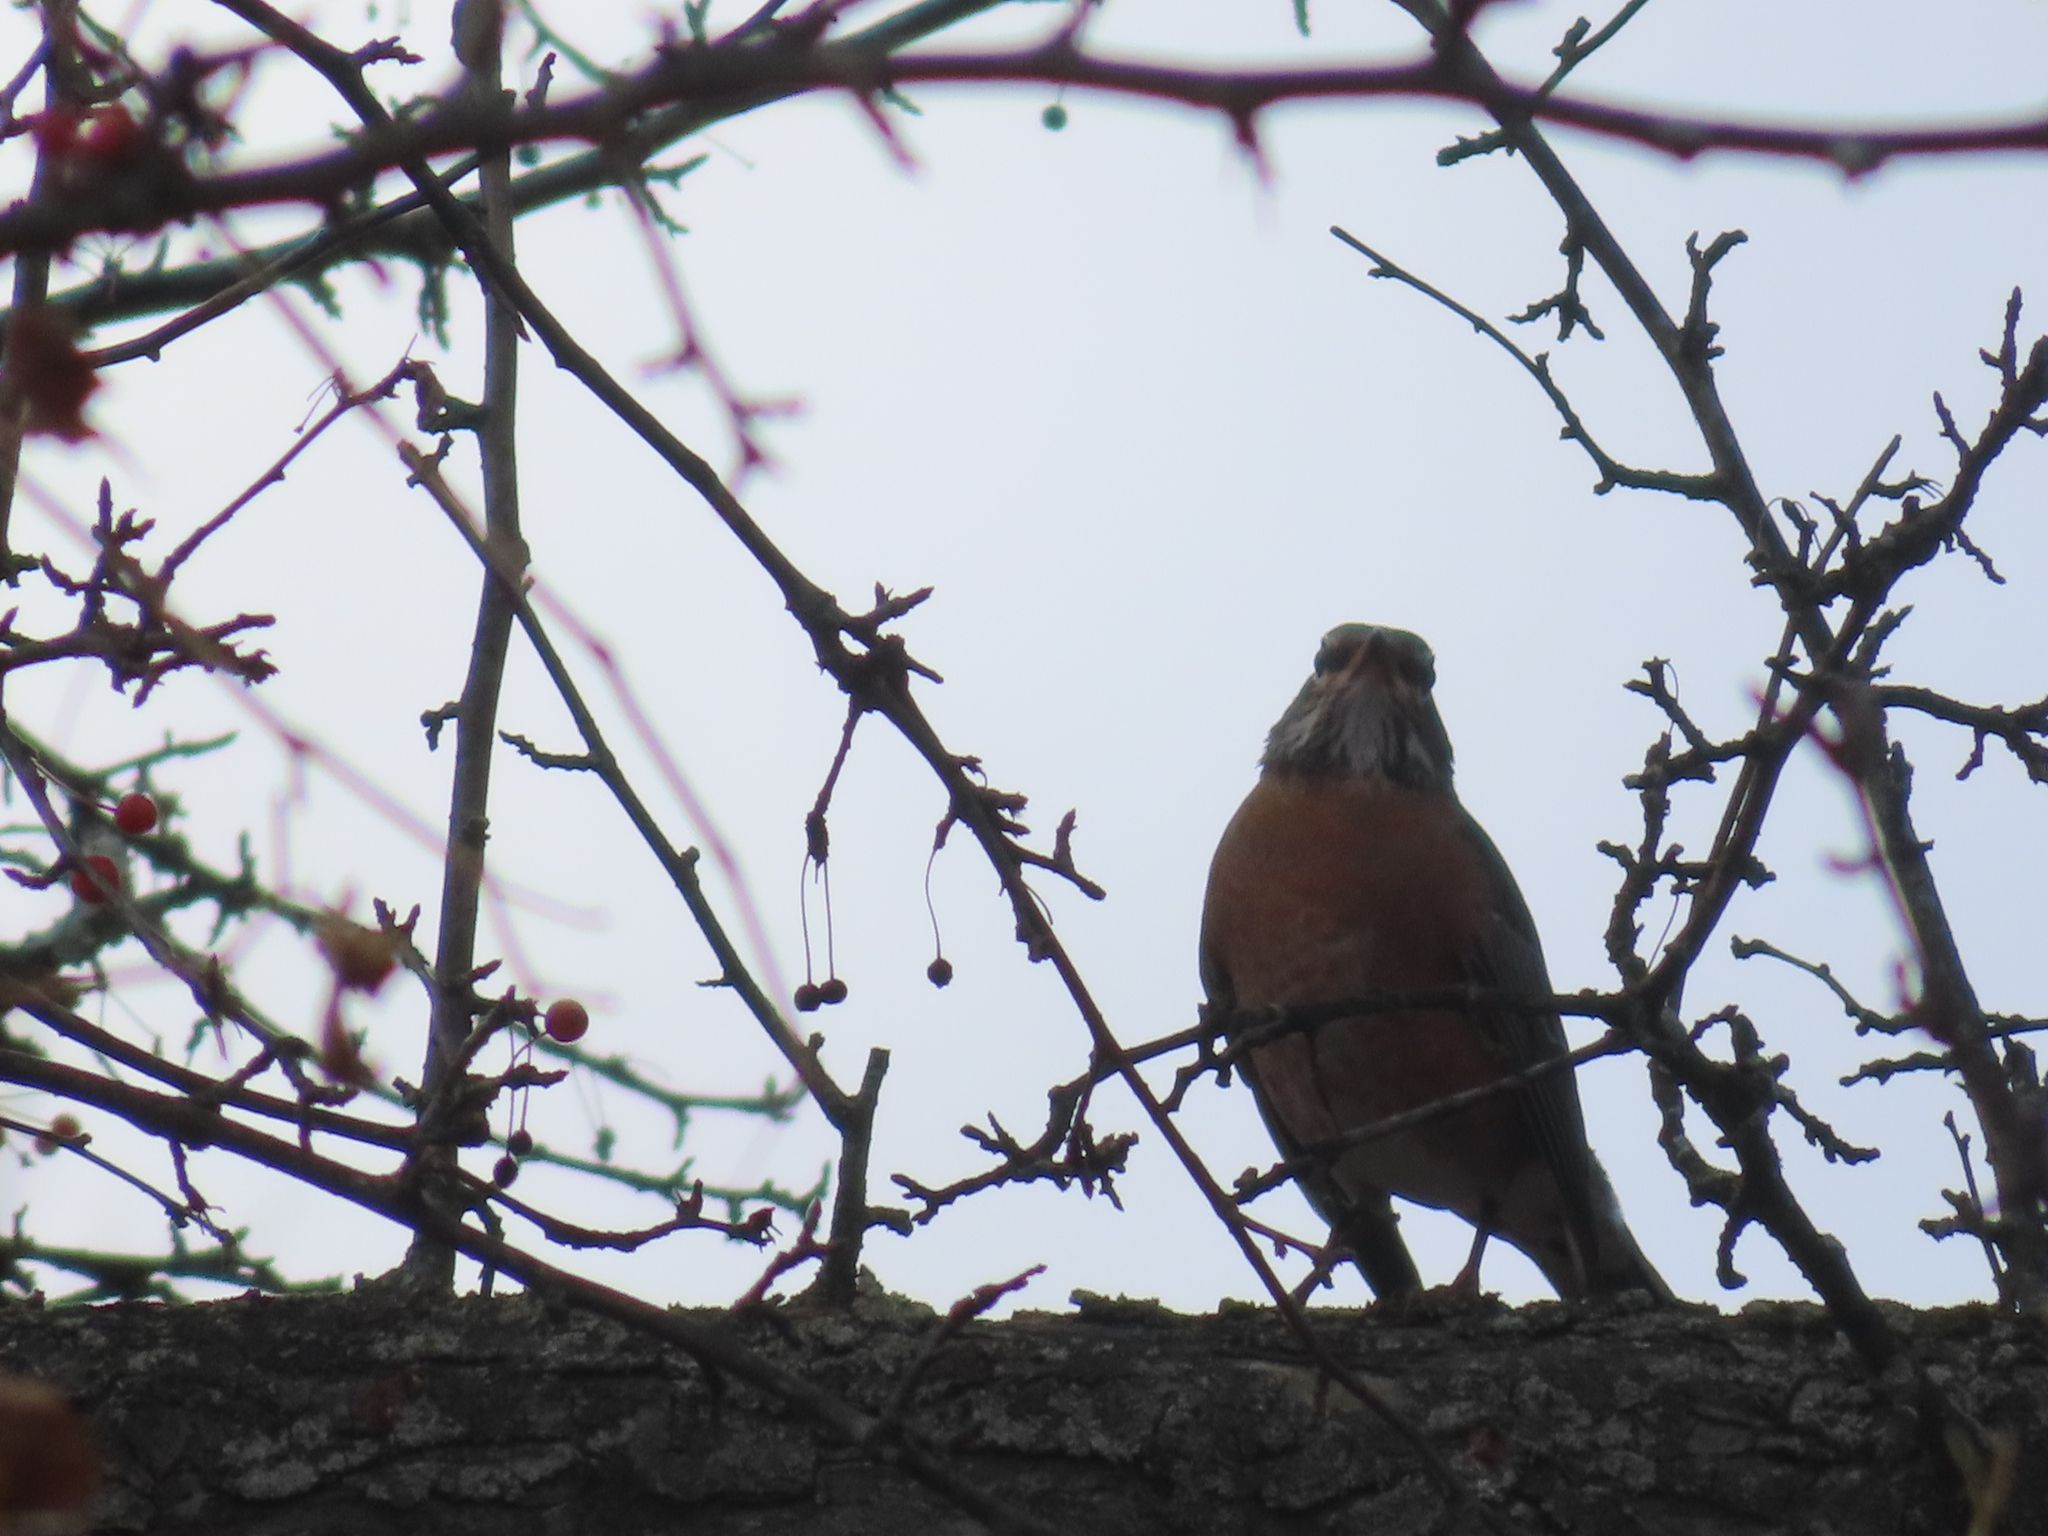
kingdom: Animalia
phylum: Chordata
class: Aves
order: Passeriformes
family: Turdidae
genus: Turdus
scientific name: Turdus migratorius
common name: American robin
